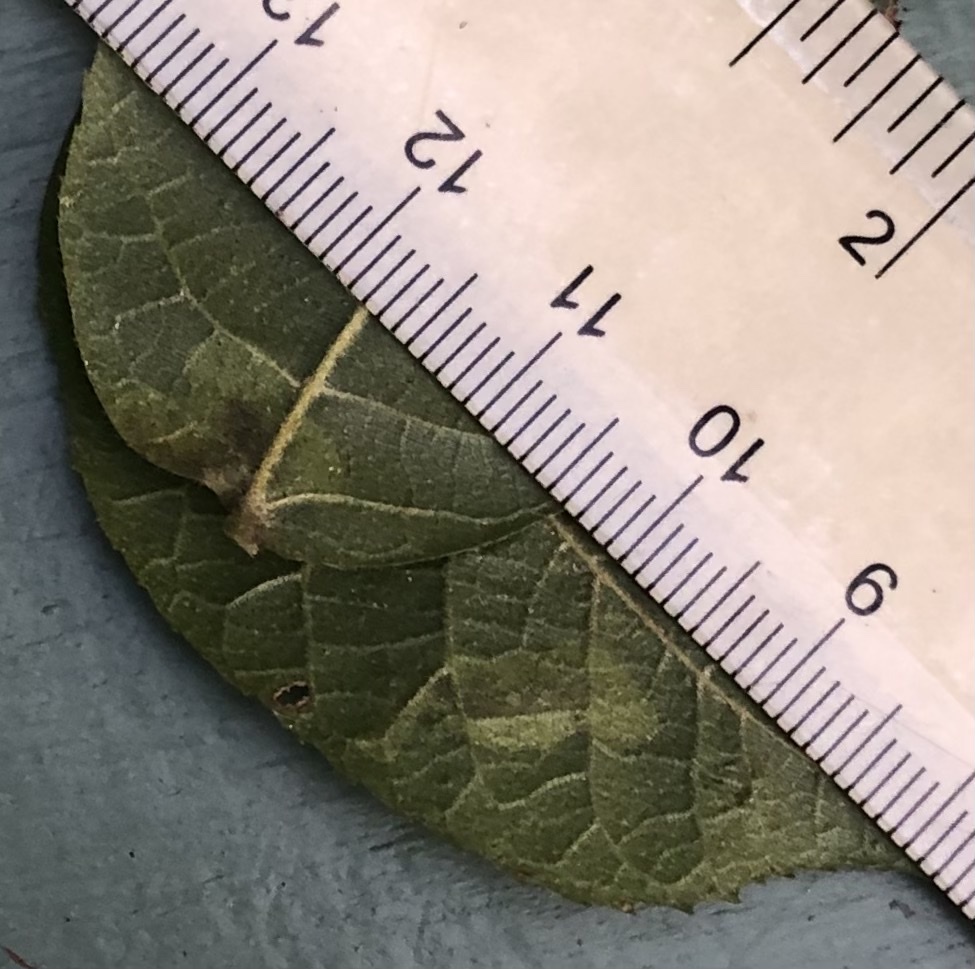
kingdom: Animalia
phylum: Arthropoda
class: Insecta
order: Lepidoptera
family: Gracillariidae
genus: Cameraria
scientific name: Cameraria caryaefoliella
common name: Pecan leafminer moth
